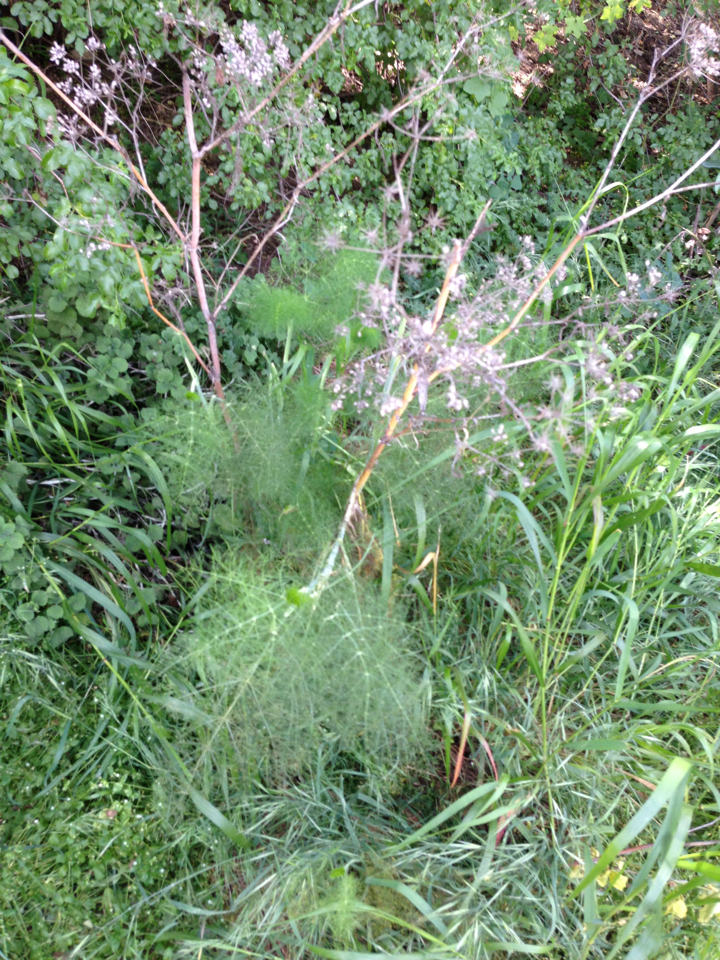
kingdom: Plantae
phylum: Tracheophyta
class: Magnoliopsida
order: Apiales
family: Apiaceae
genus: Foeniculum
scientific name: Foeniculum vulgare
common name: Fennel
